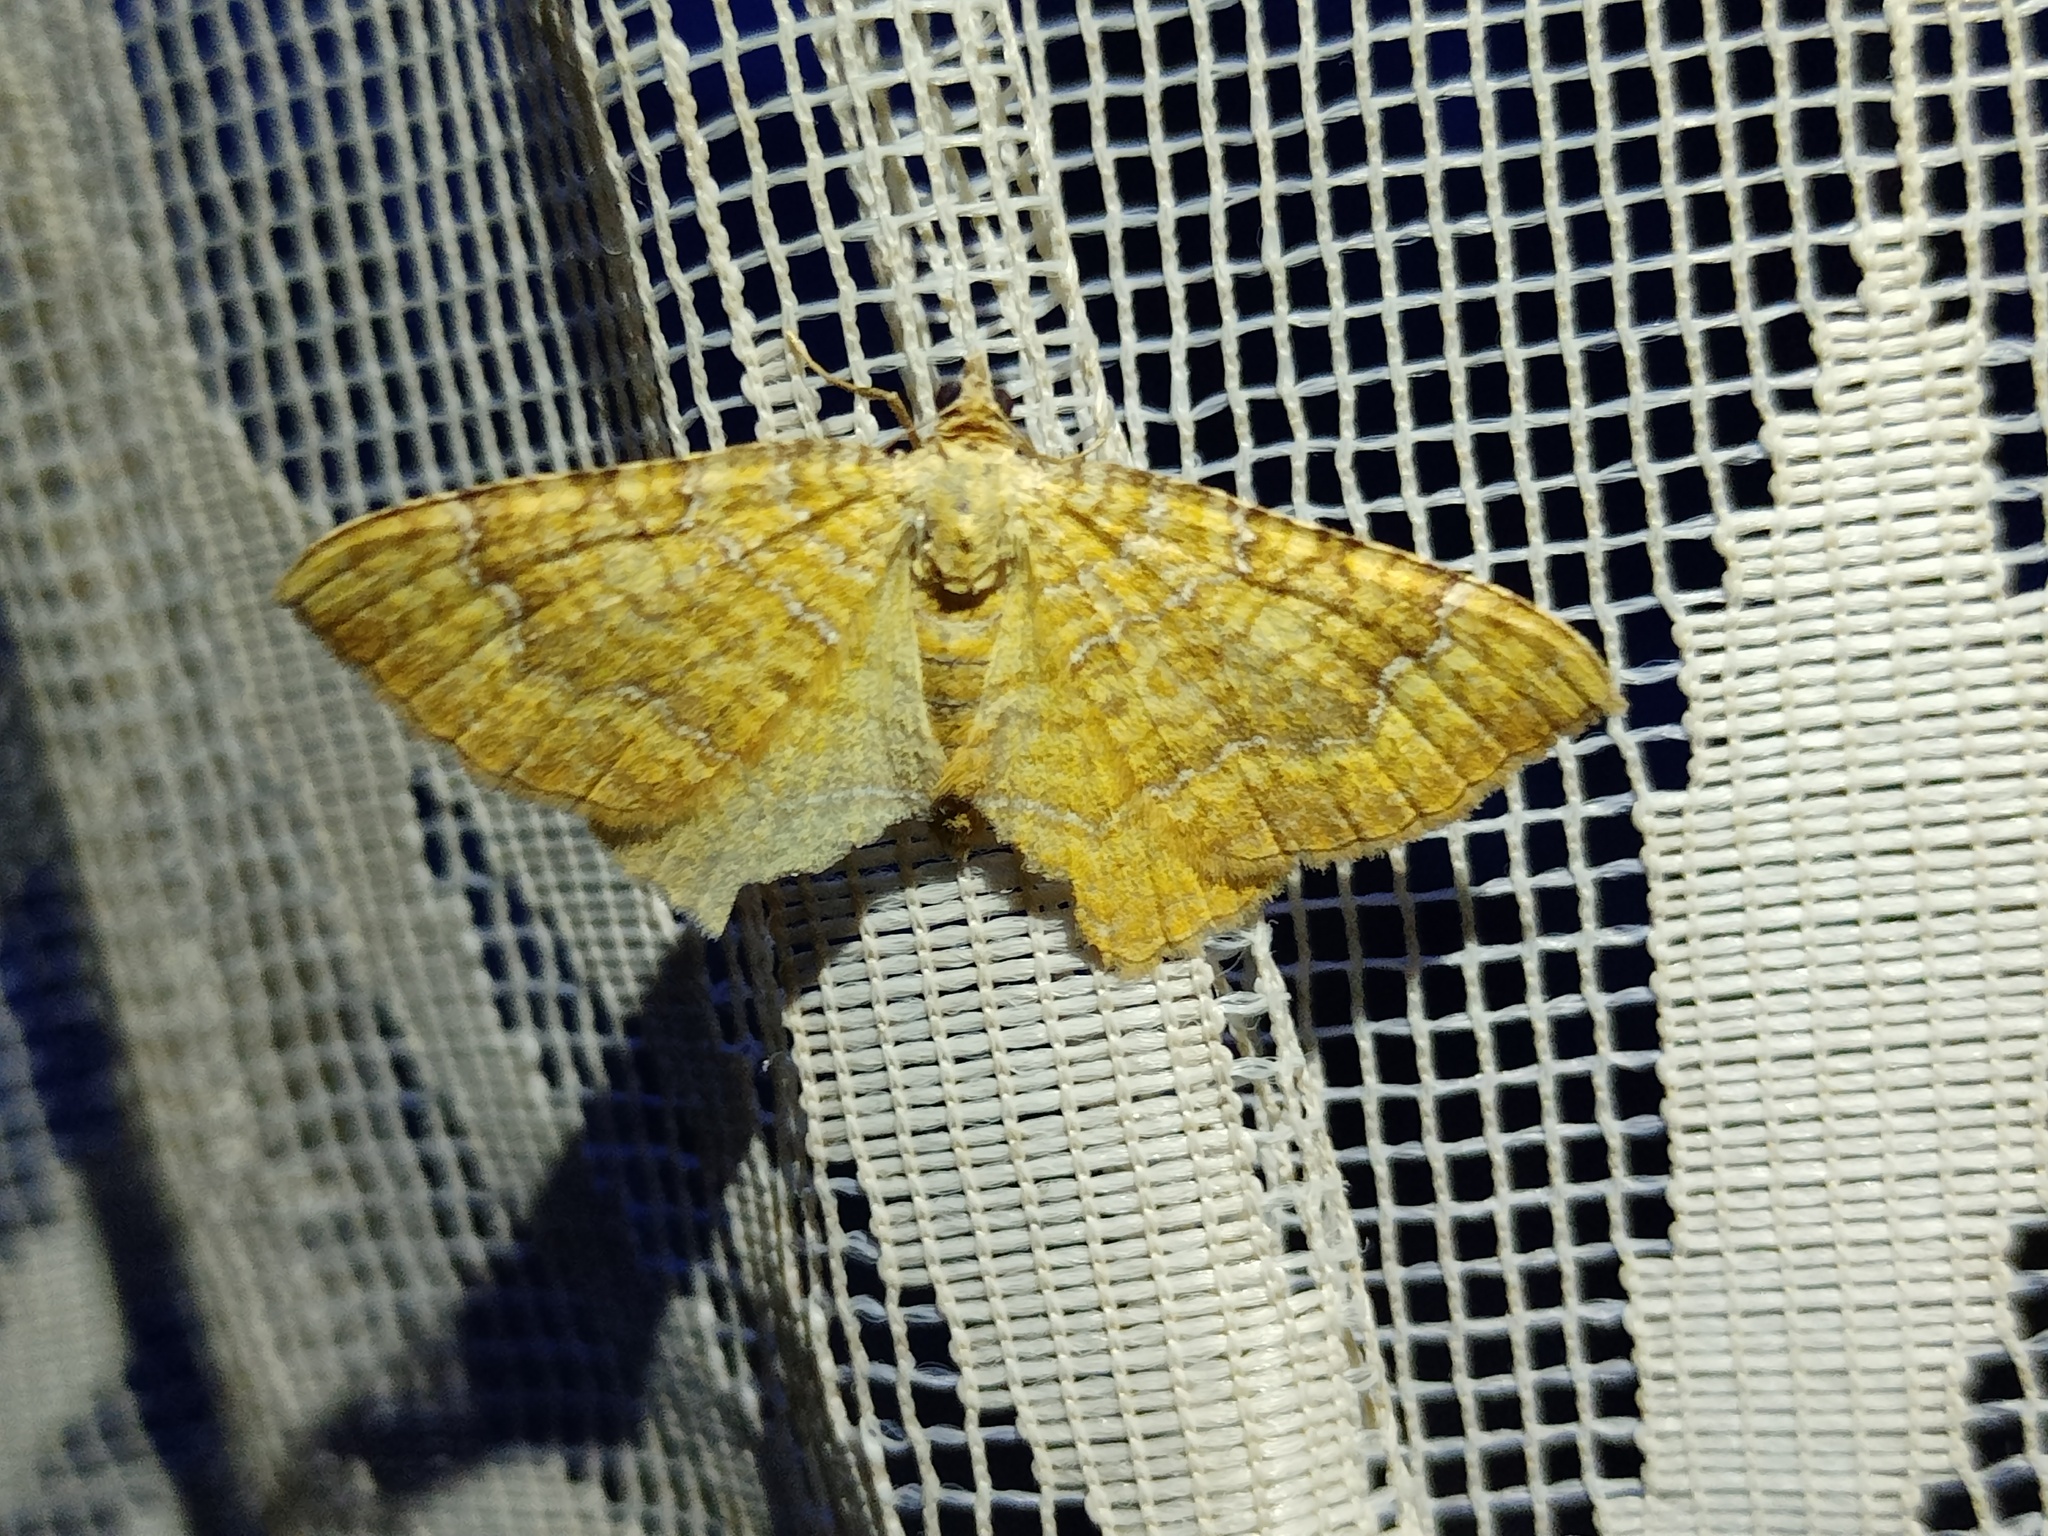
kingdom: Animalia
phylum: Arthropoda
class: Insecta
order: Lepidoptera
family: Geometridae
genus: Camptogramma
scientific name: Camptogramma bilineata
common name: Yellow shell
